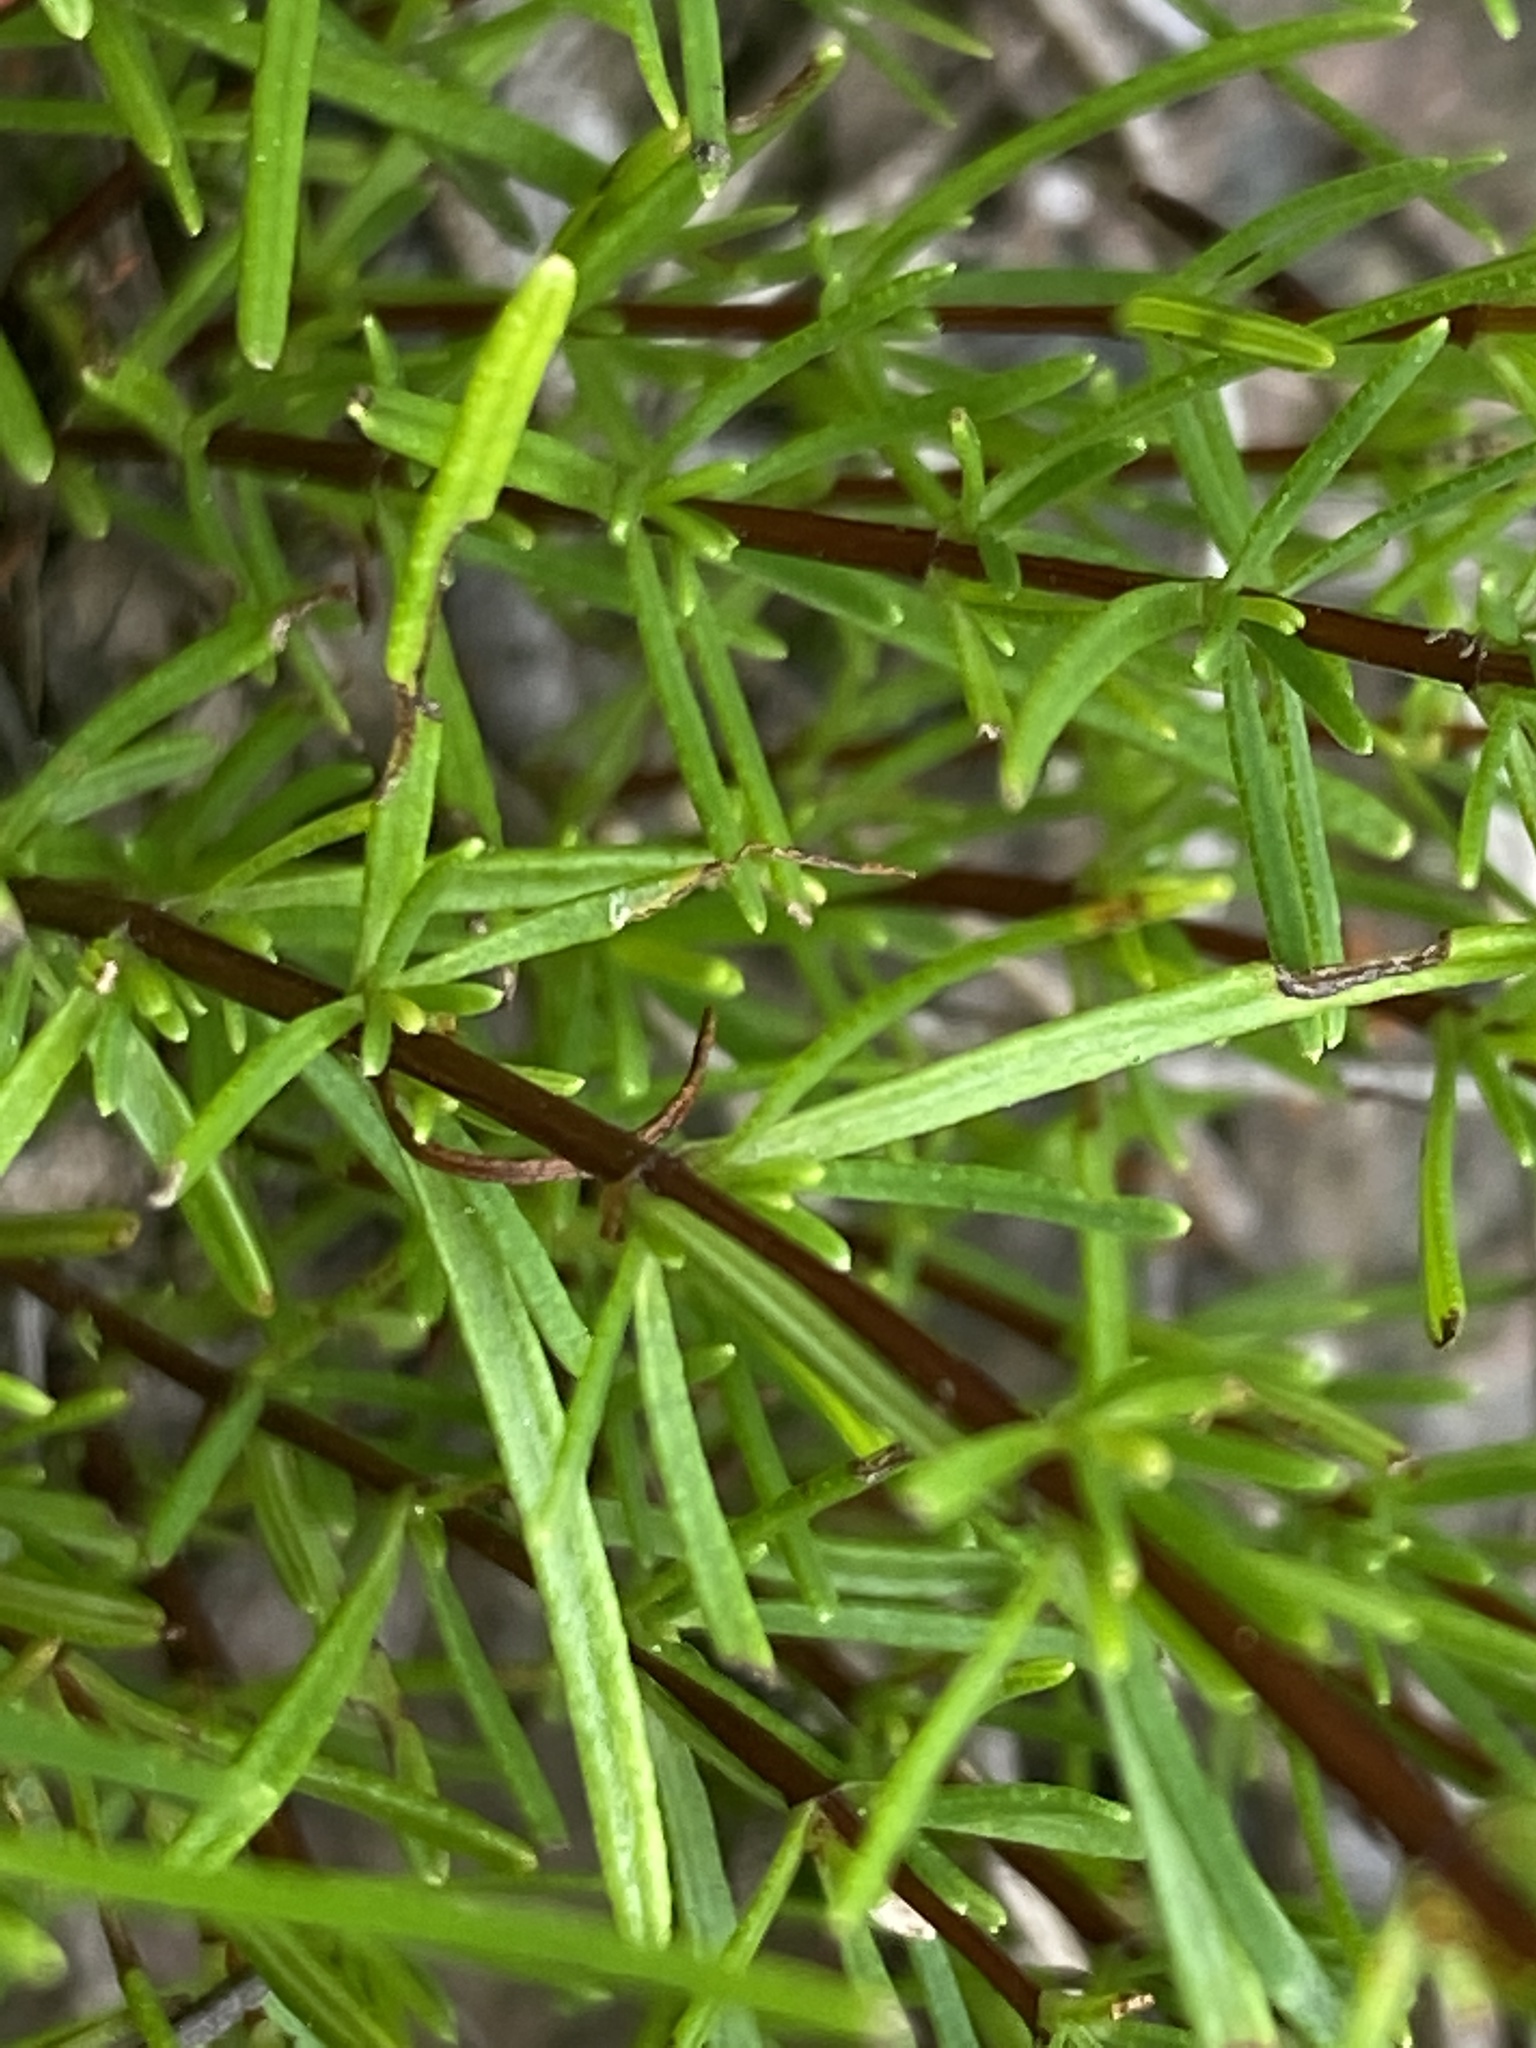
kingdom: Plantae
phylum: Tracheophyta
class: Magnoliopsida
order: Malpighiales
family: Hypericaceae
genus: Hypericum
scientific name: Hypericum lloydii
